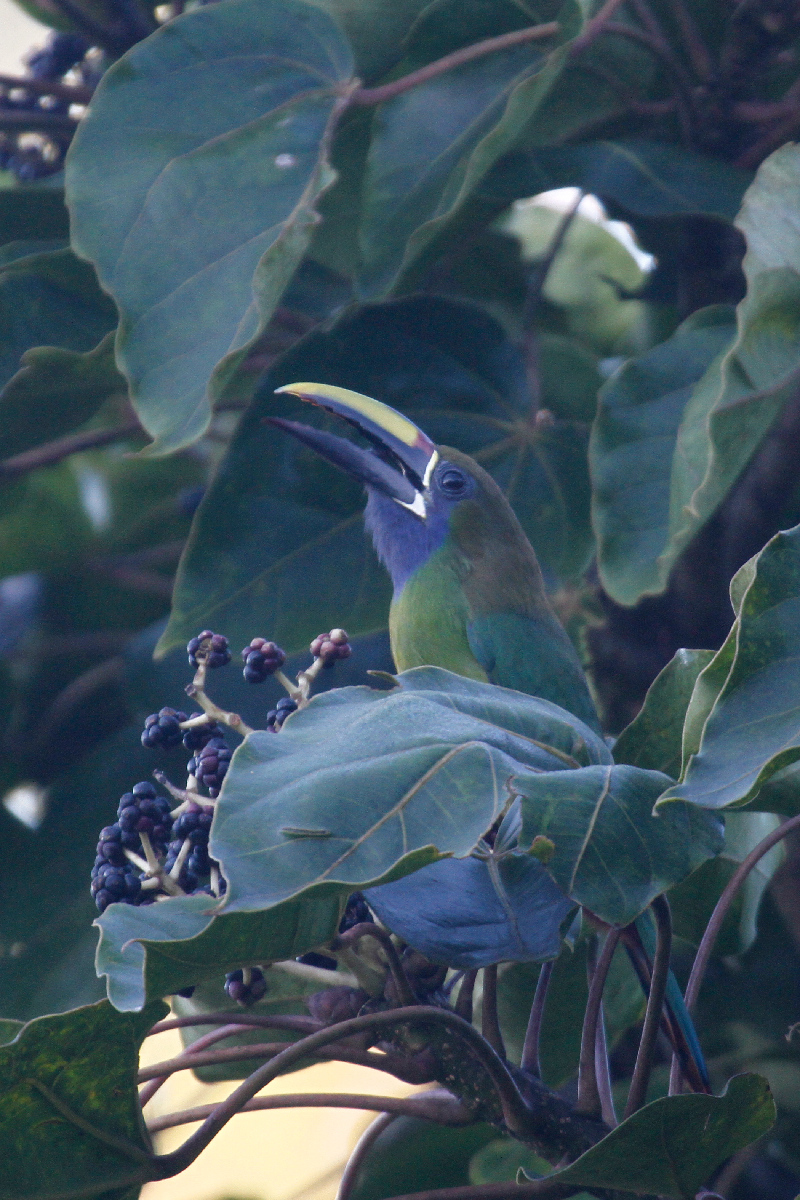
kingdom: Animalia
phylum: Chordata
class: Aves
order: Piciformes
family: Ramphastidae
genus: Aulacorhynchus
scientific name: Aulacorhynchus prasinus
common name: Emerald toucanet
